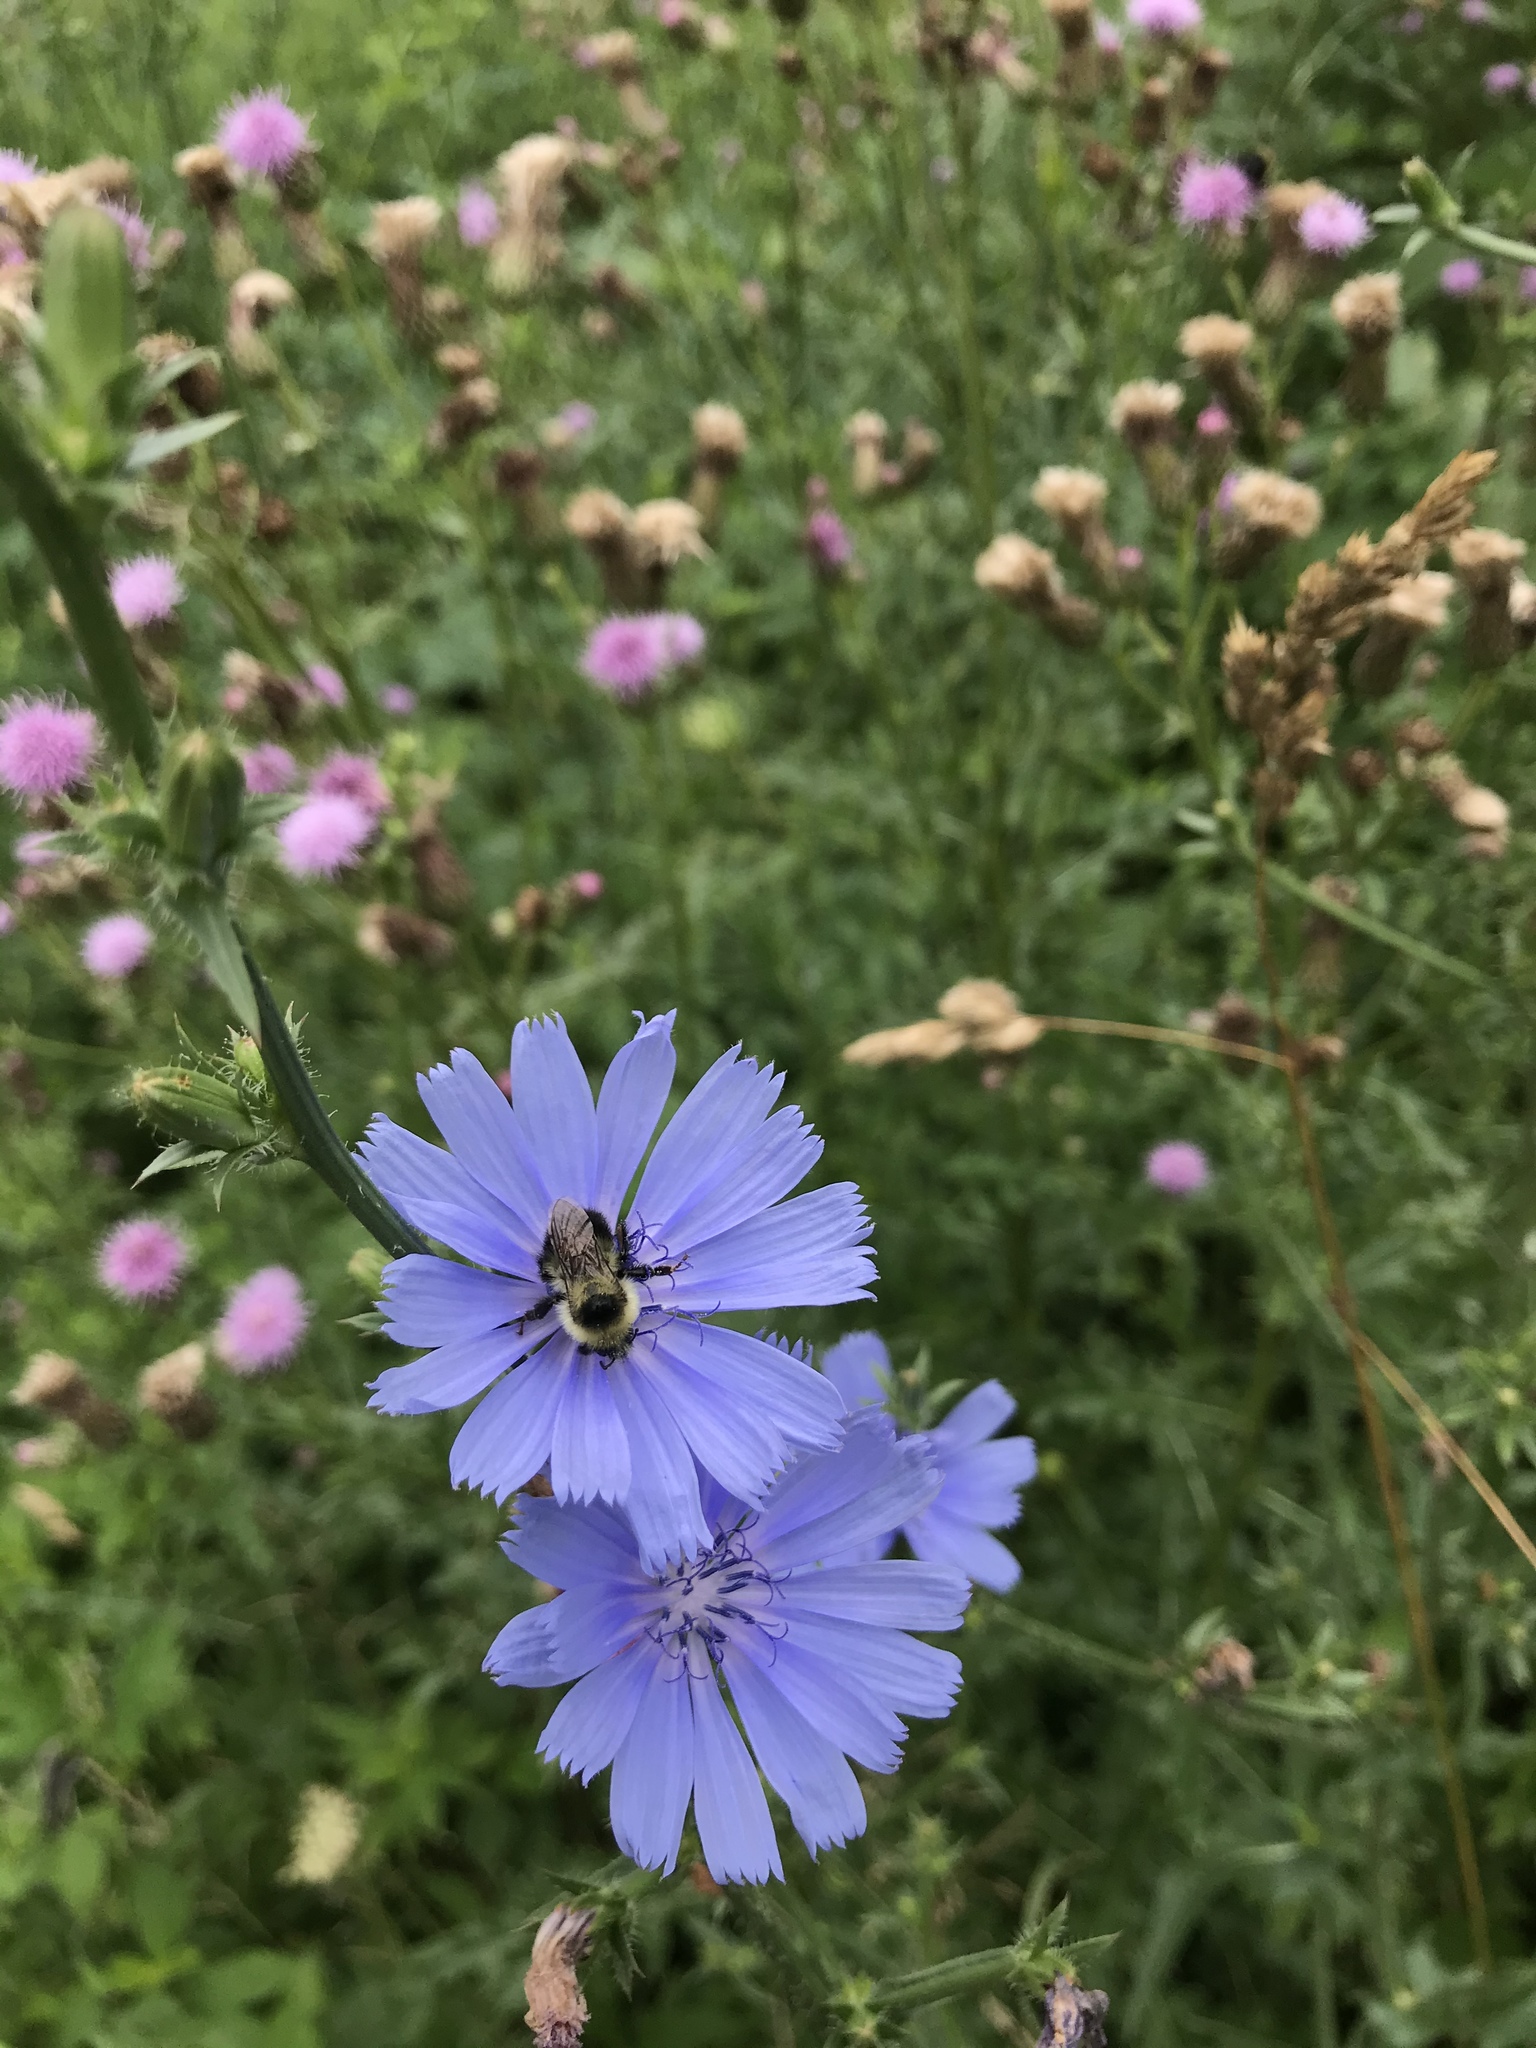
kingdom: Animalia
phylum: Arthropoda
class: Insecta
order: Hymenoptera
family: Apidae
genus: Bombus
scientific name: Bombus rufocinctus
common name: Red-belted bumble bee
